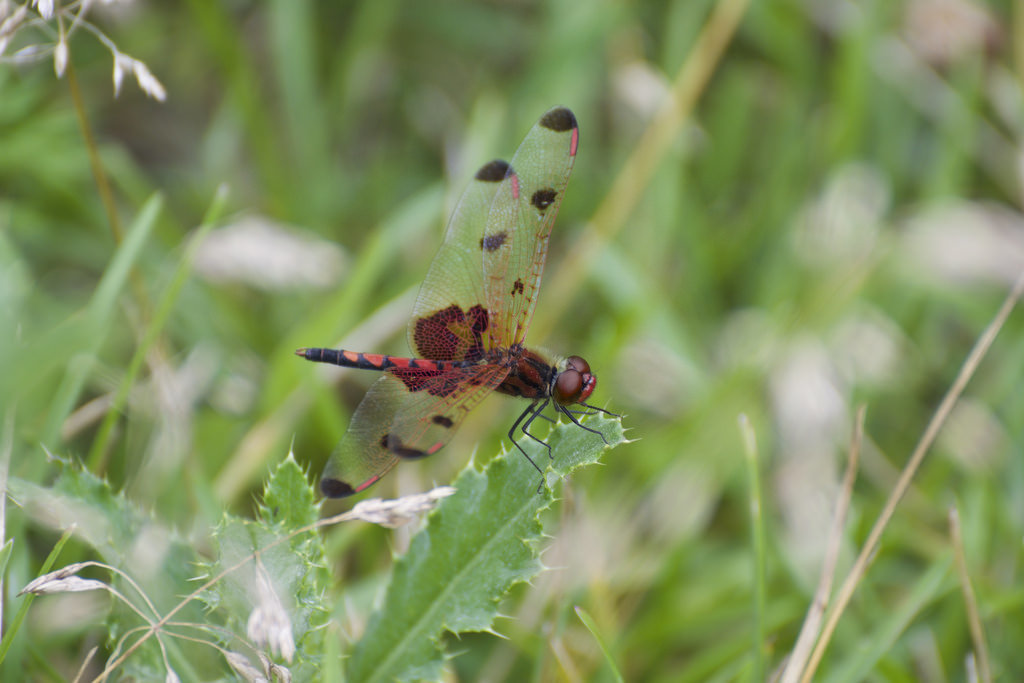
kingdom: Animalia
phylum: Arthropoda
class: Insecta
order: Odonata
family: Libellulidae
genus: Celithemis
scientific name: Celithemis elisa
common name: Calico pennant
